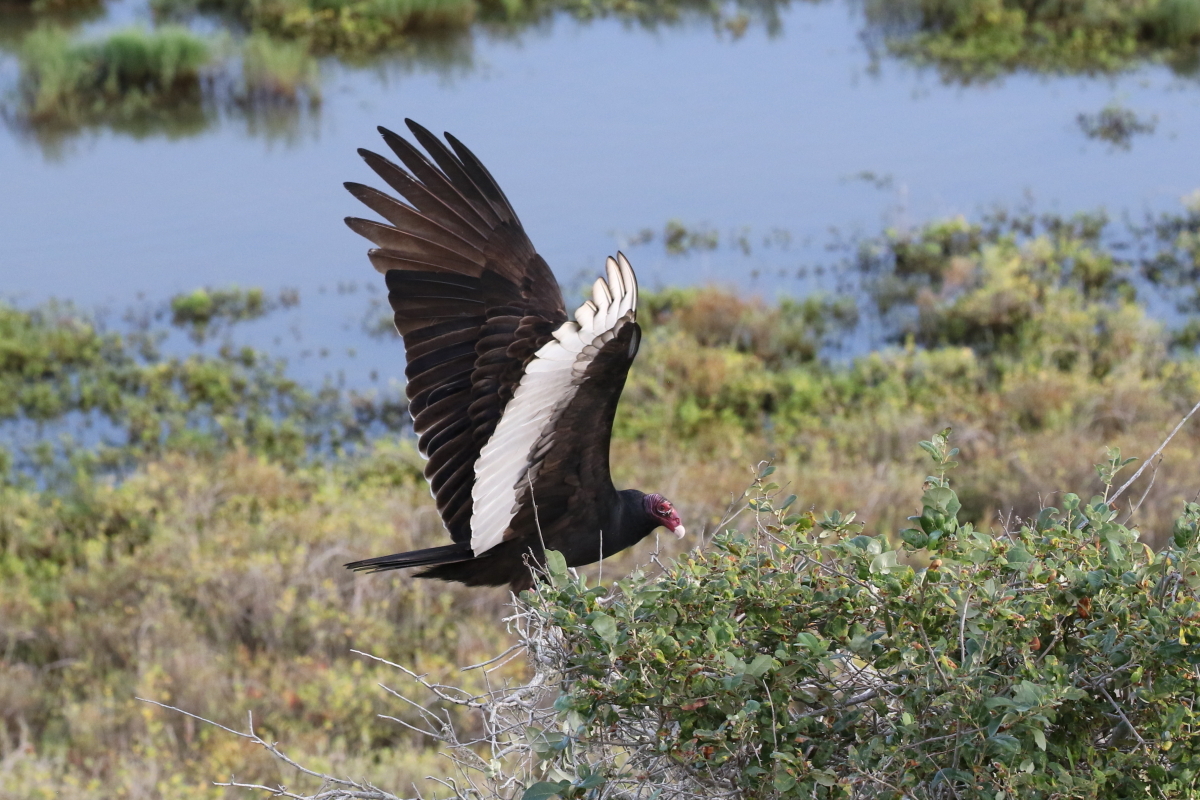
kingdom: Animalia
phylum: Chordata
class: Aves
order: Accipitriformes
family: Cathartidae
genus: Cathartes
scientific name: Cathartes aura
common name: Turkey vulture
